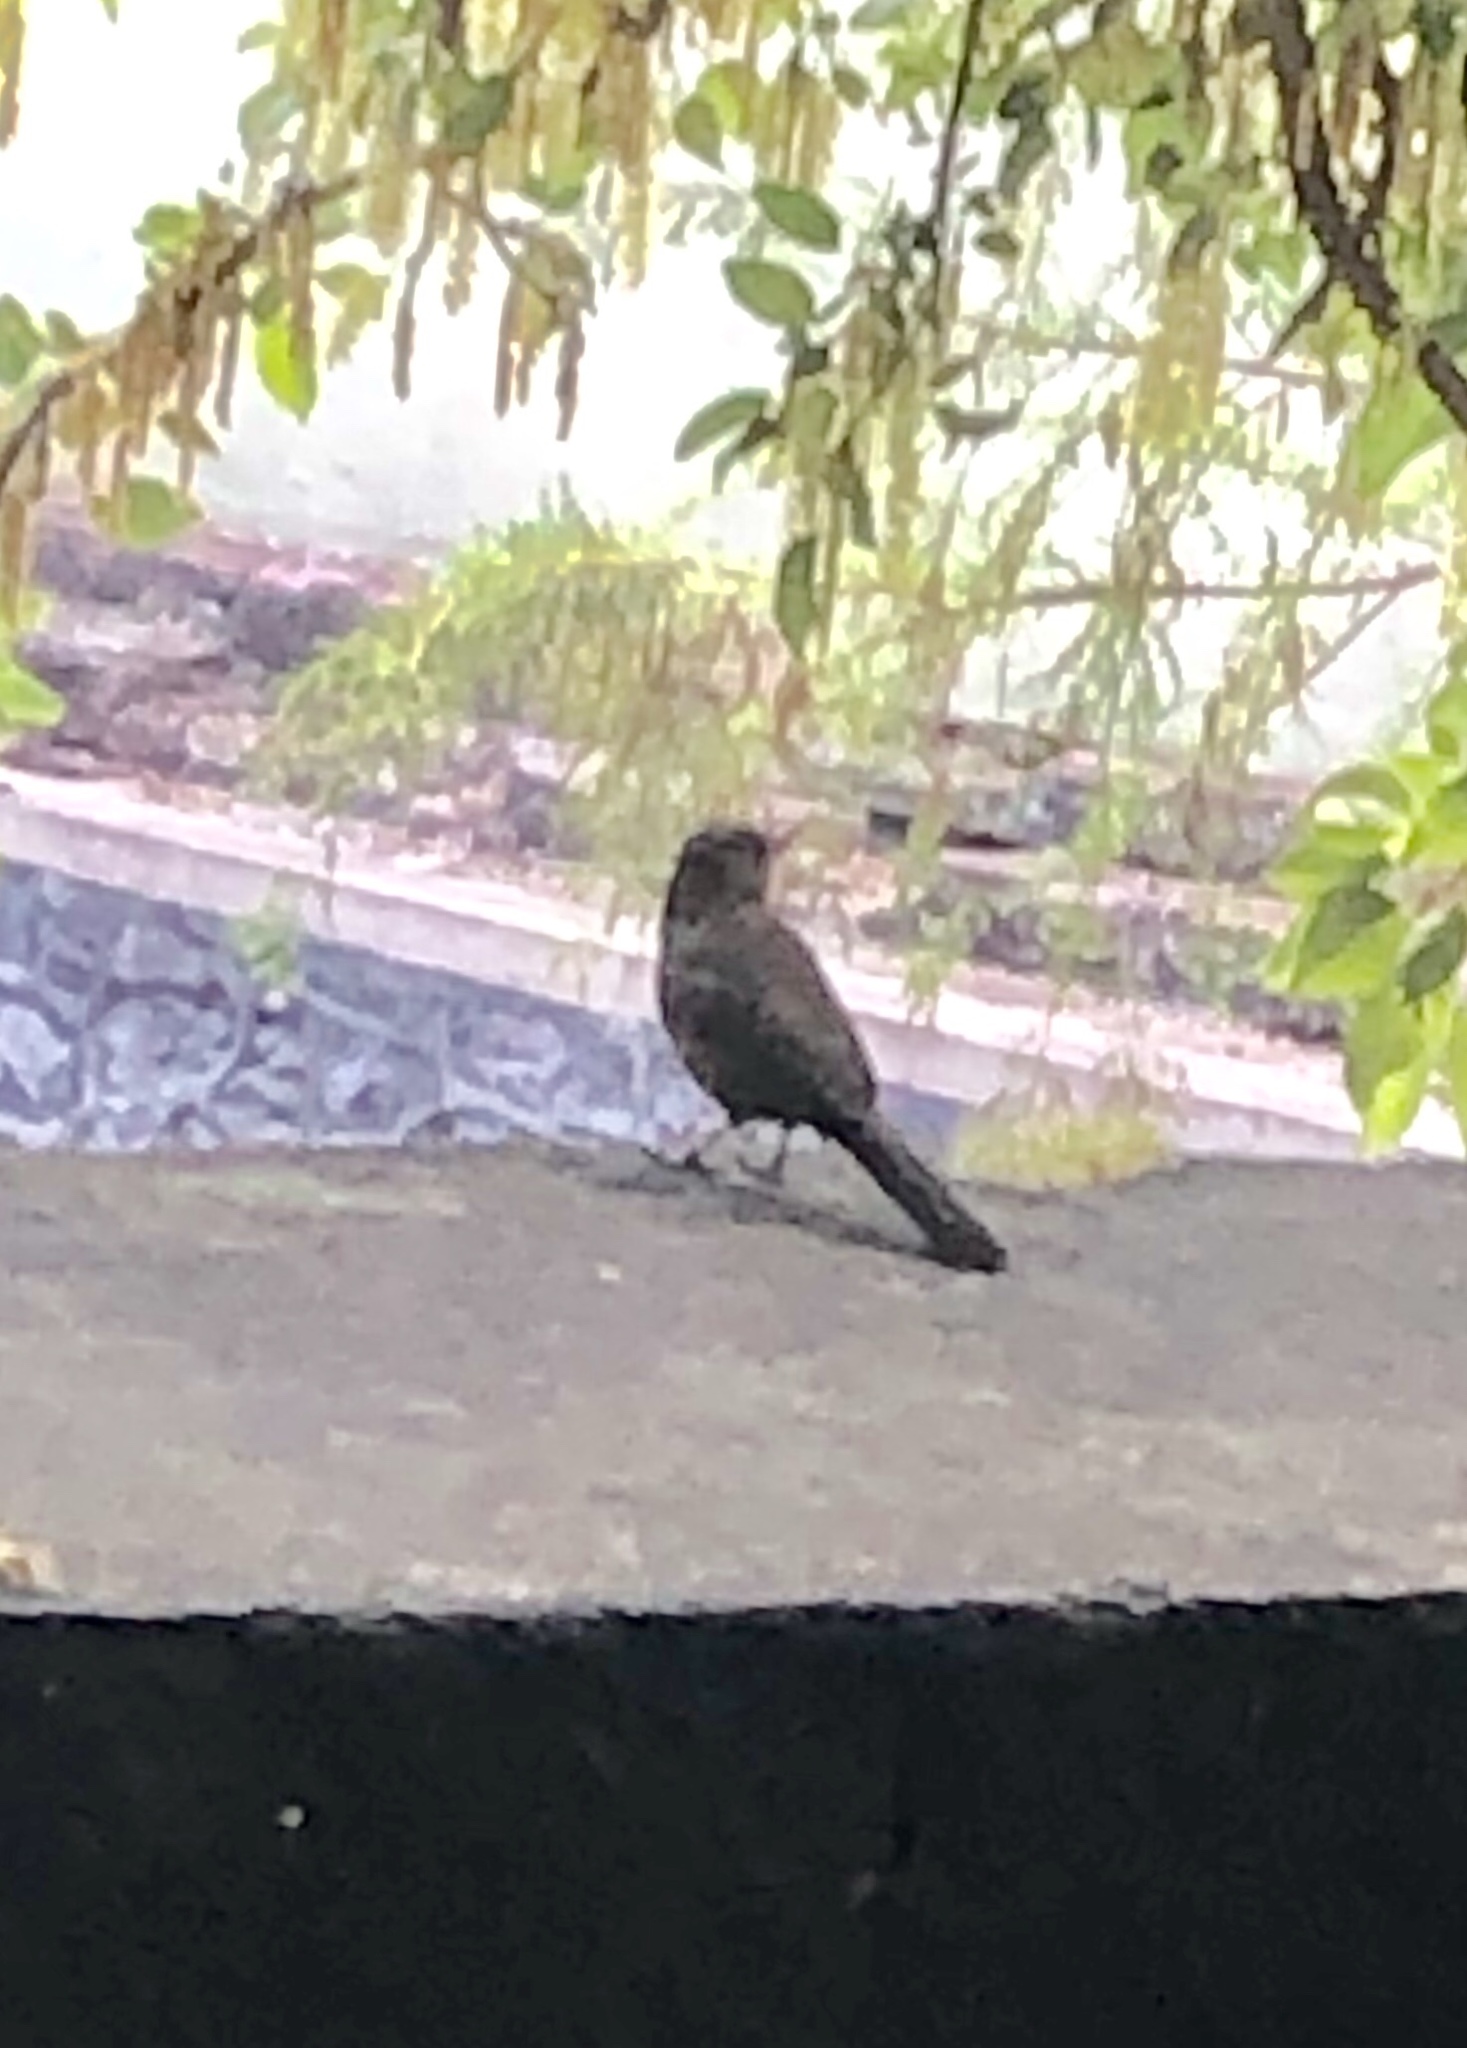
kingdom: Animalia
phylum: Chordata
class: Aves
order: Passeriformes
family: Passerellidae
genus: Melozone
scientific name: Melozone fusca
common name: Canyon towhee
